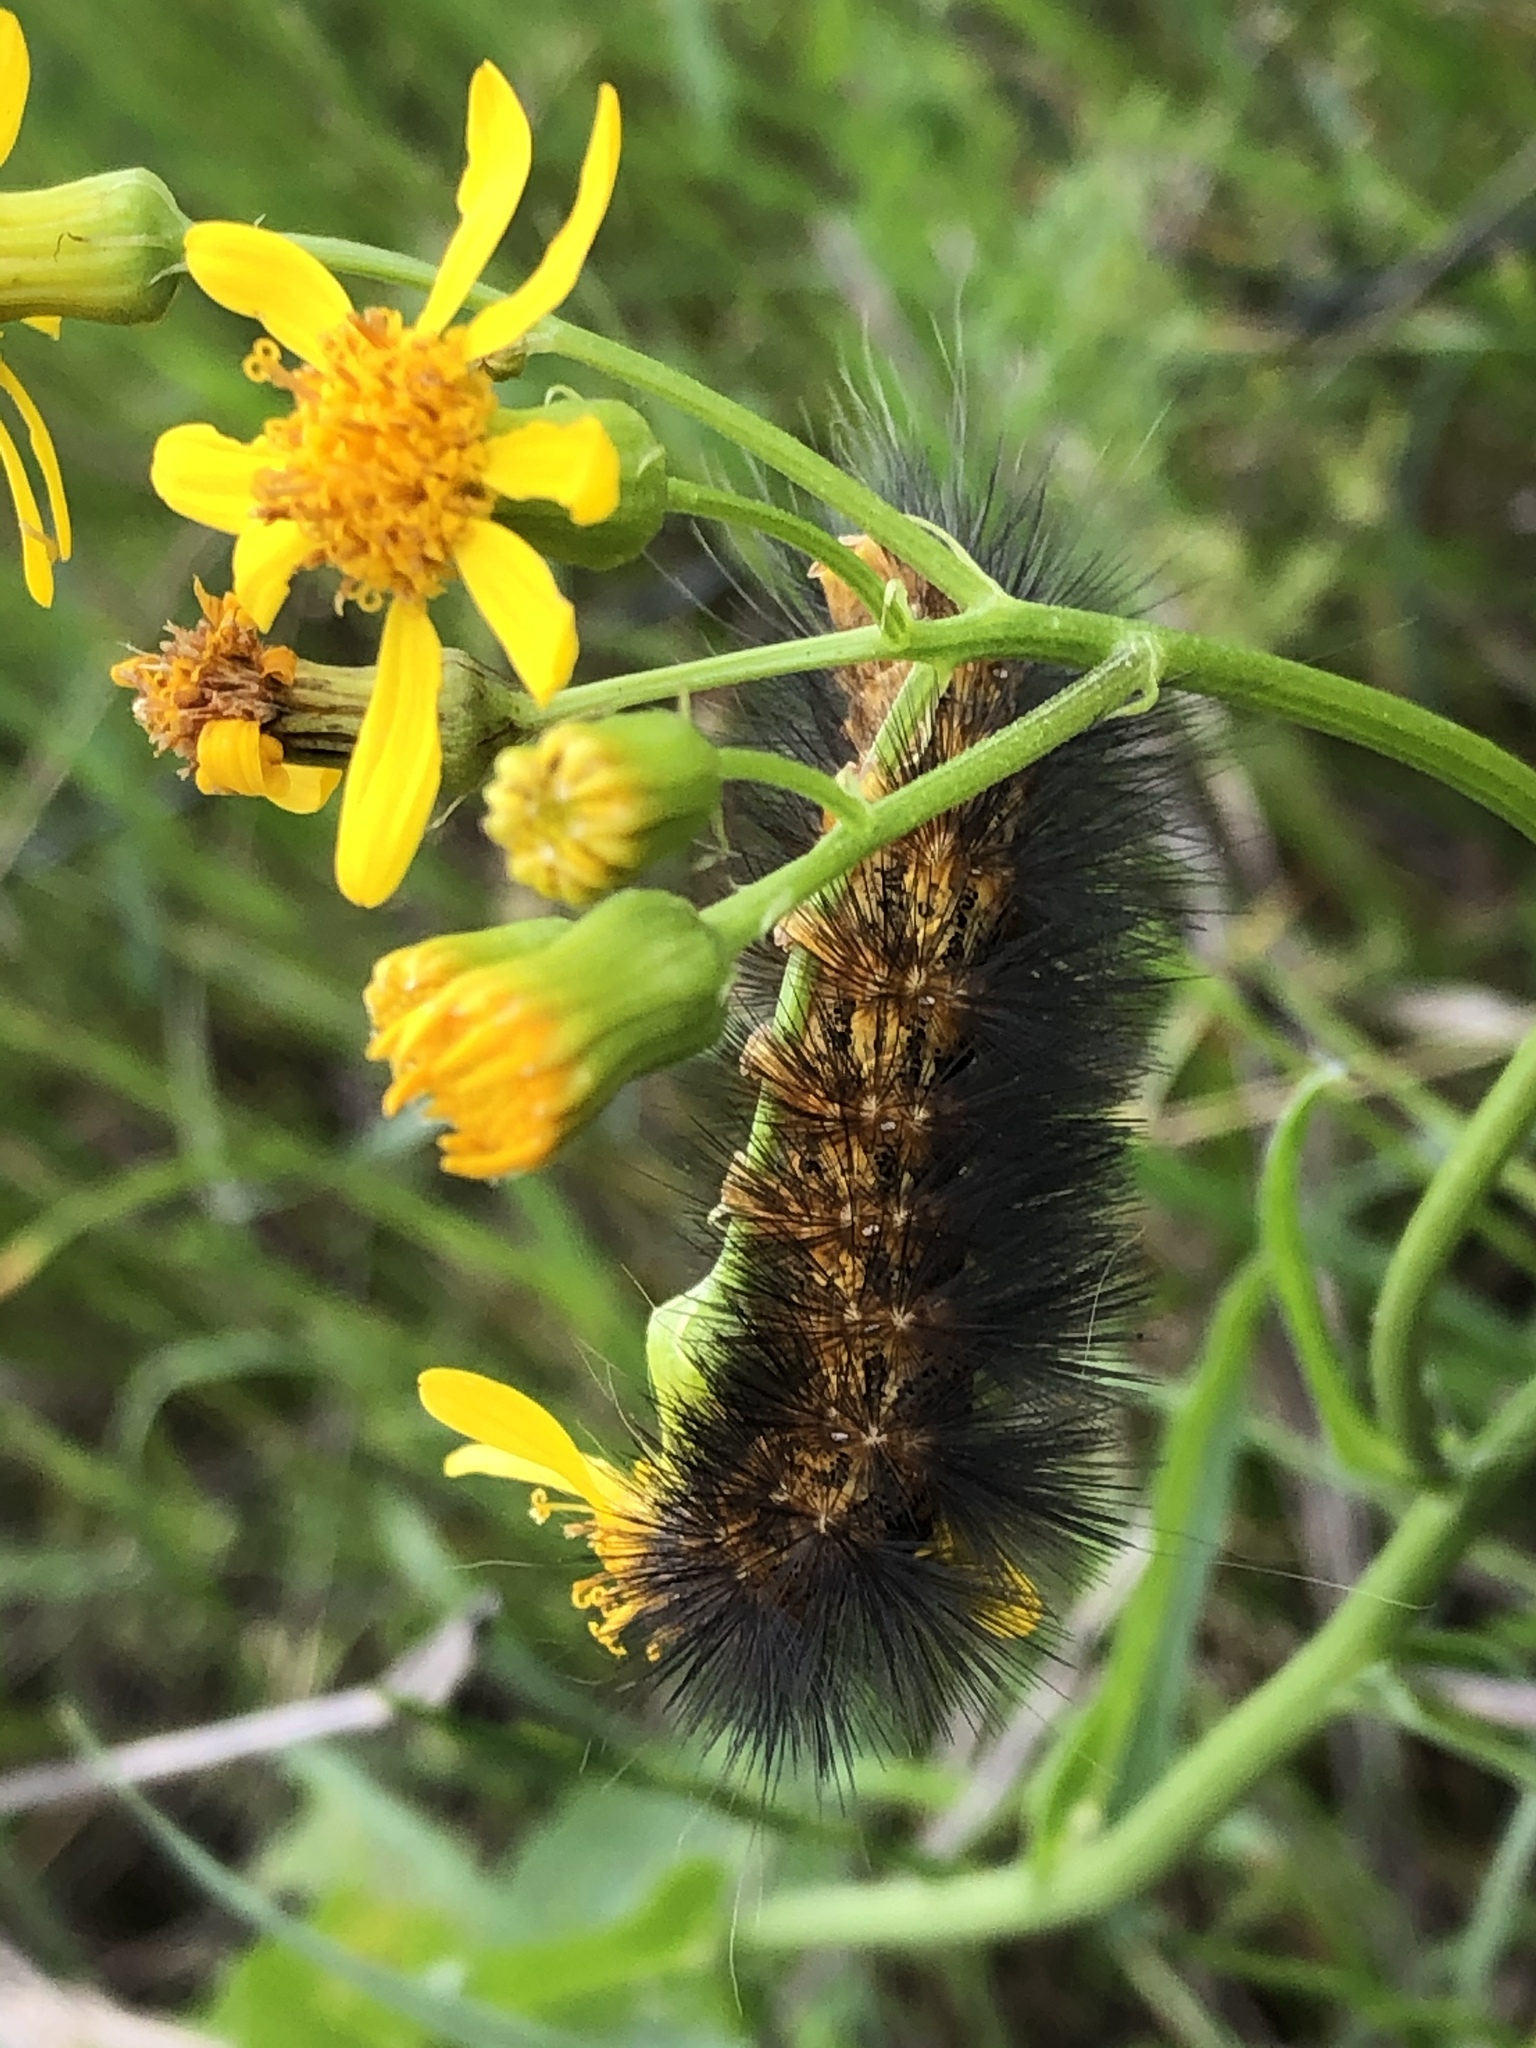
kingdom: Animalia
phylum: Arthropoda
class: Insecta
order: Lepidoptera
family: Erebidae
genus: Estigmene
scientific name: Estigmene acrea
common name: Salt marsh moth
